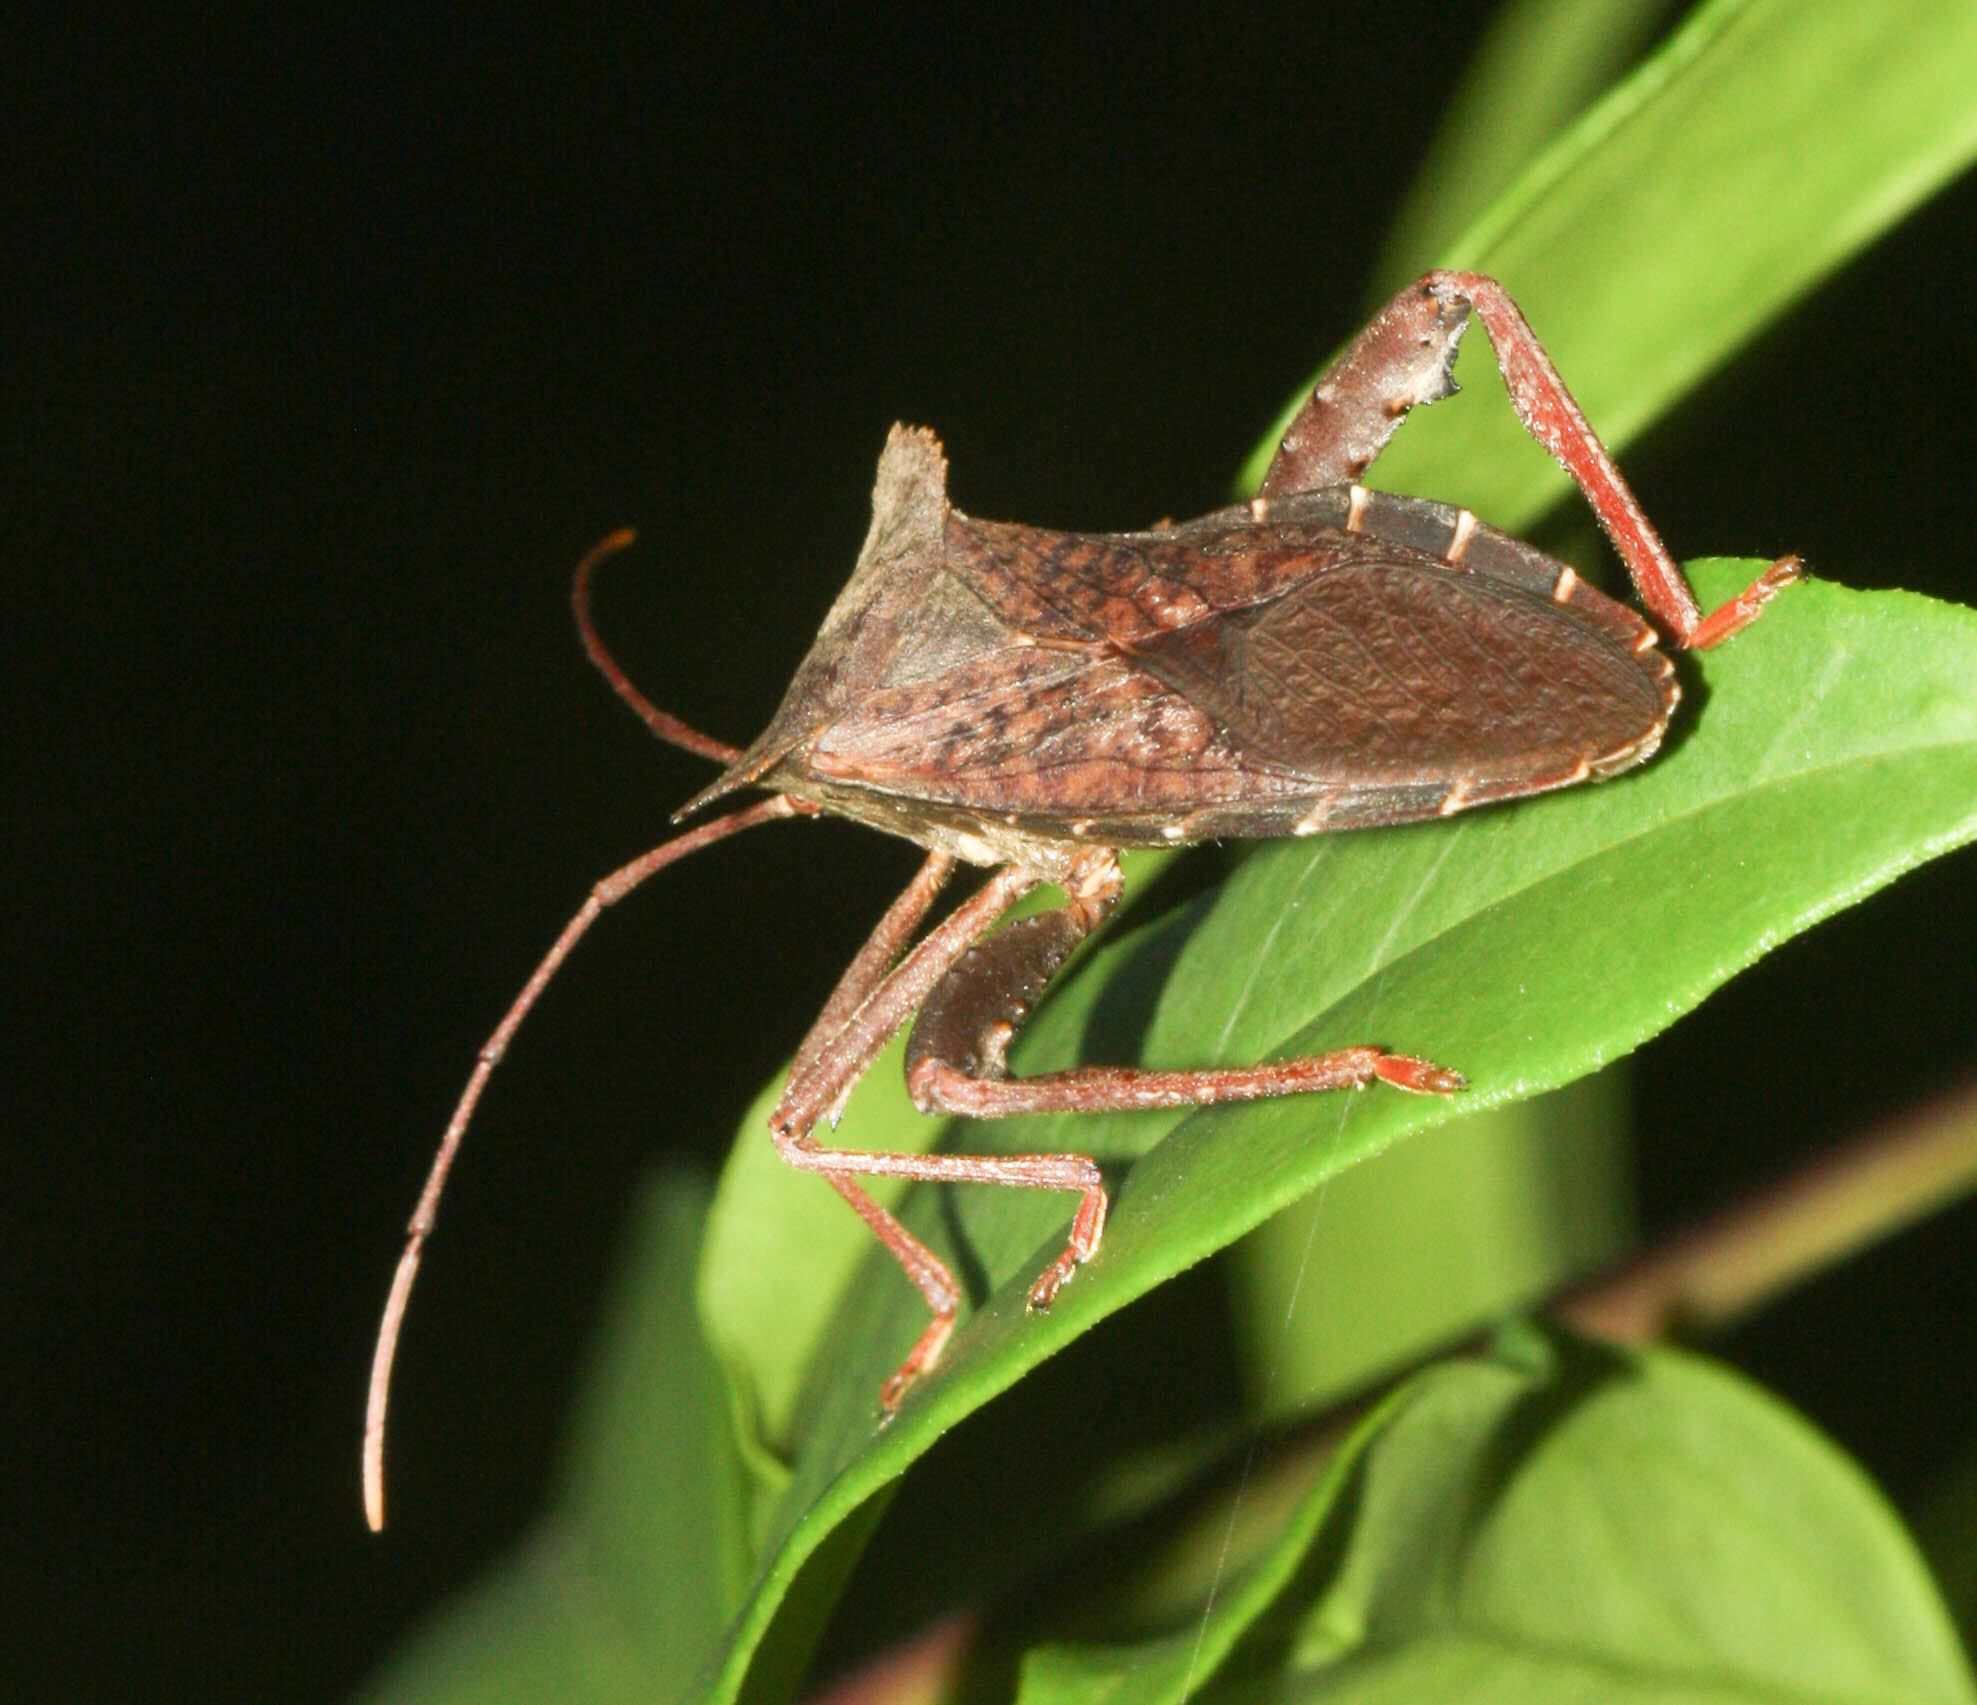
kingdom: Animalia
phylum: Arthropoda
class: Insecta
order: Hemiptera
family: Coreidae
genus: Rhamnomia
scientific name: Rhamnomia dubia
